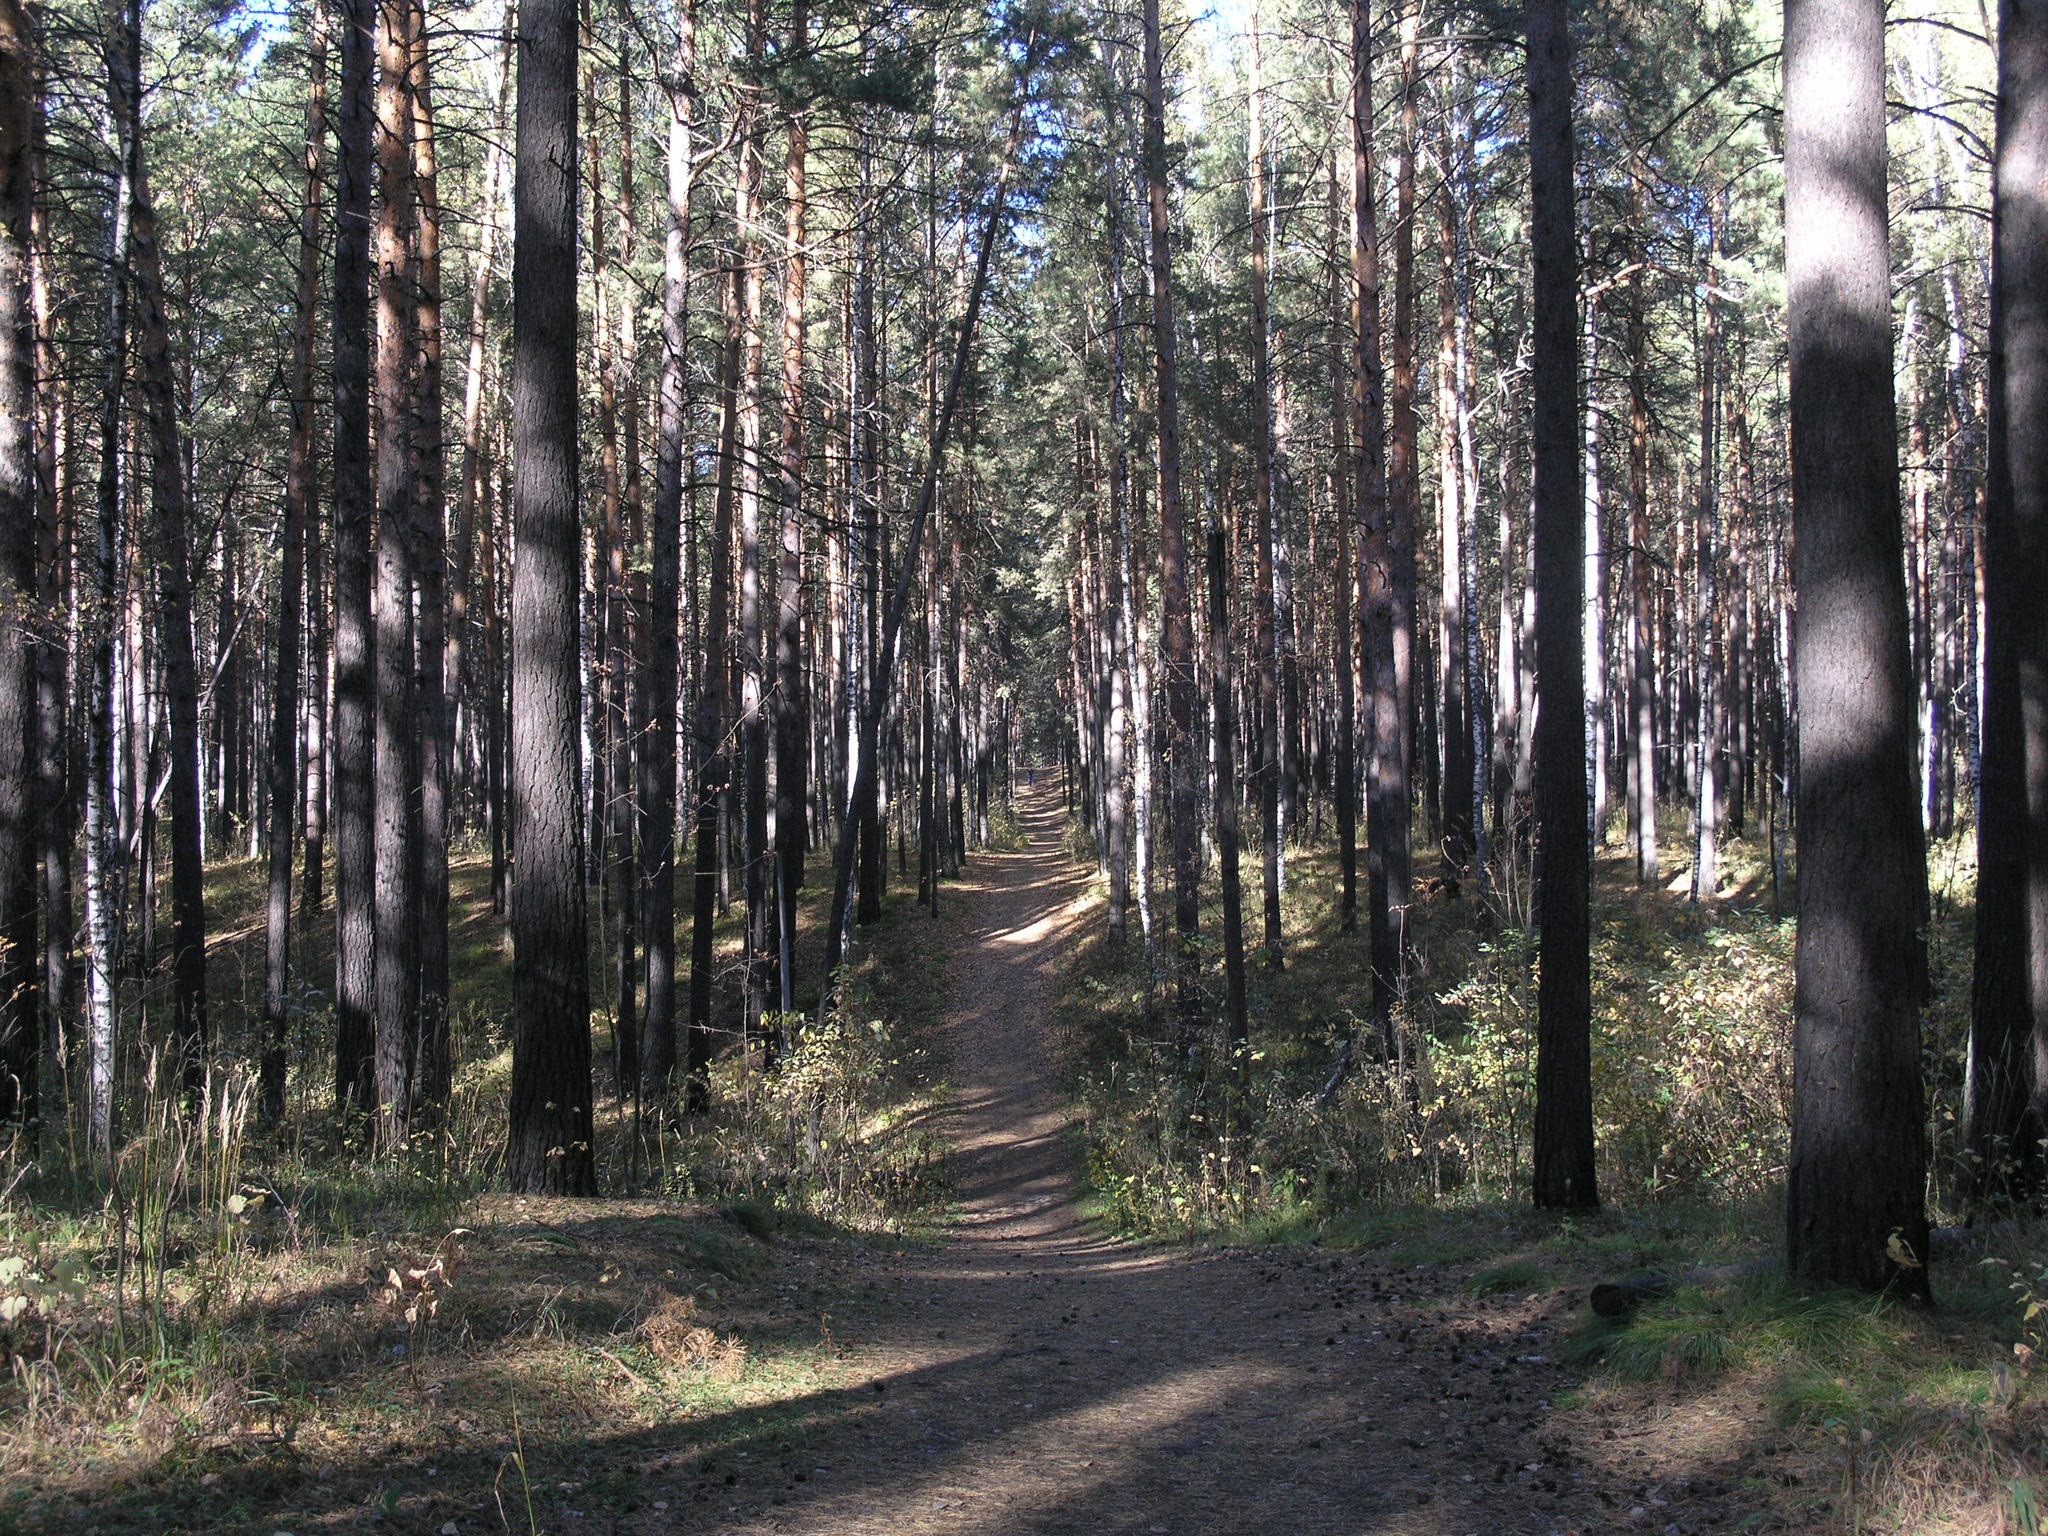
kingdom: Plantae
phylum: Tracheophyta
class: Pinopsida
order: Pinales
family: Pinaceae
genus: Pinus
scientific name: Pinus sylvestris
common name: Scots pine
